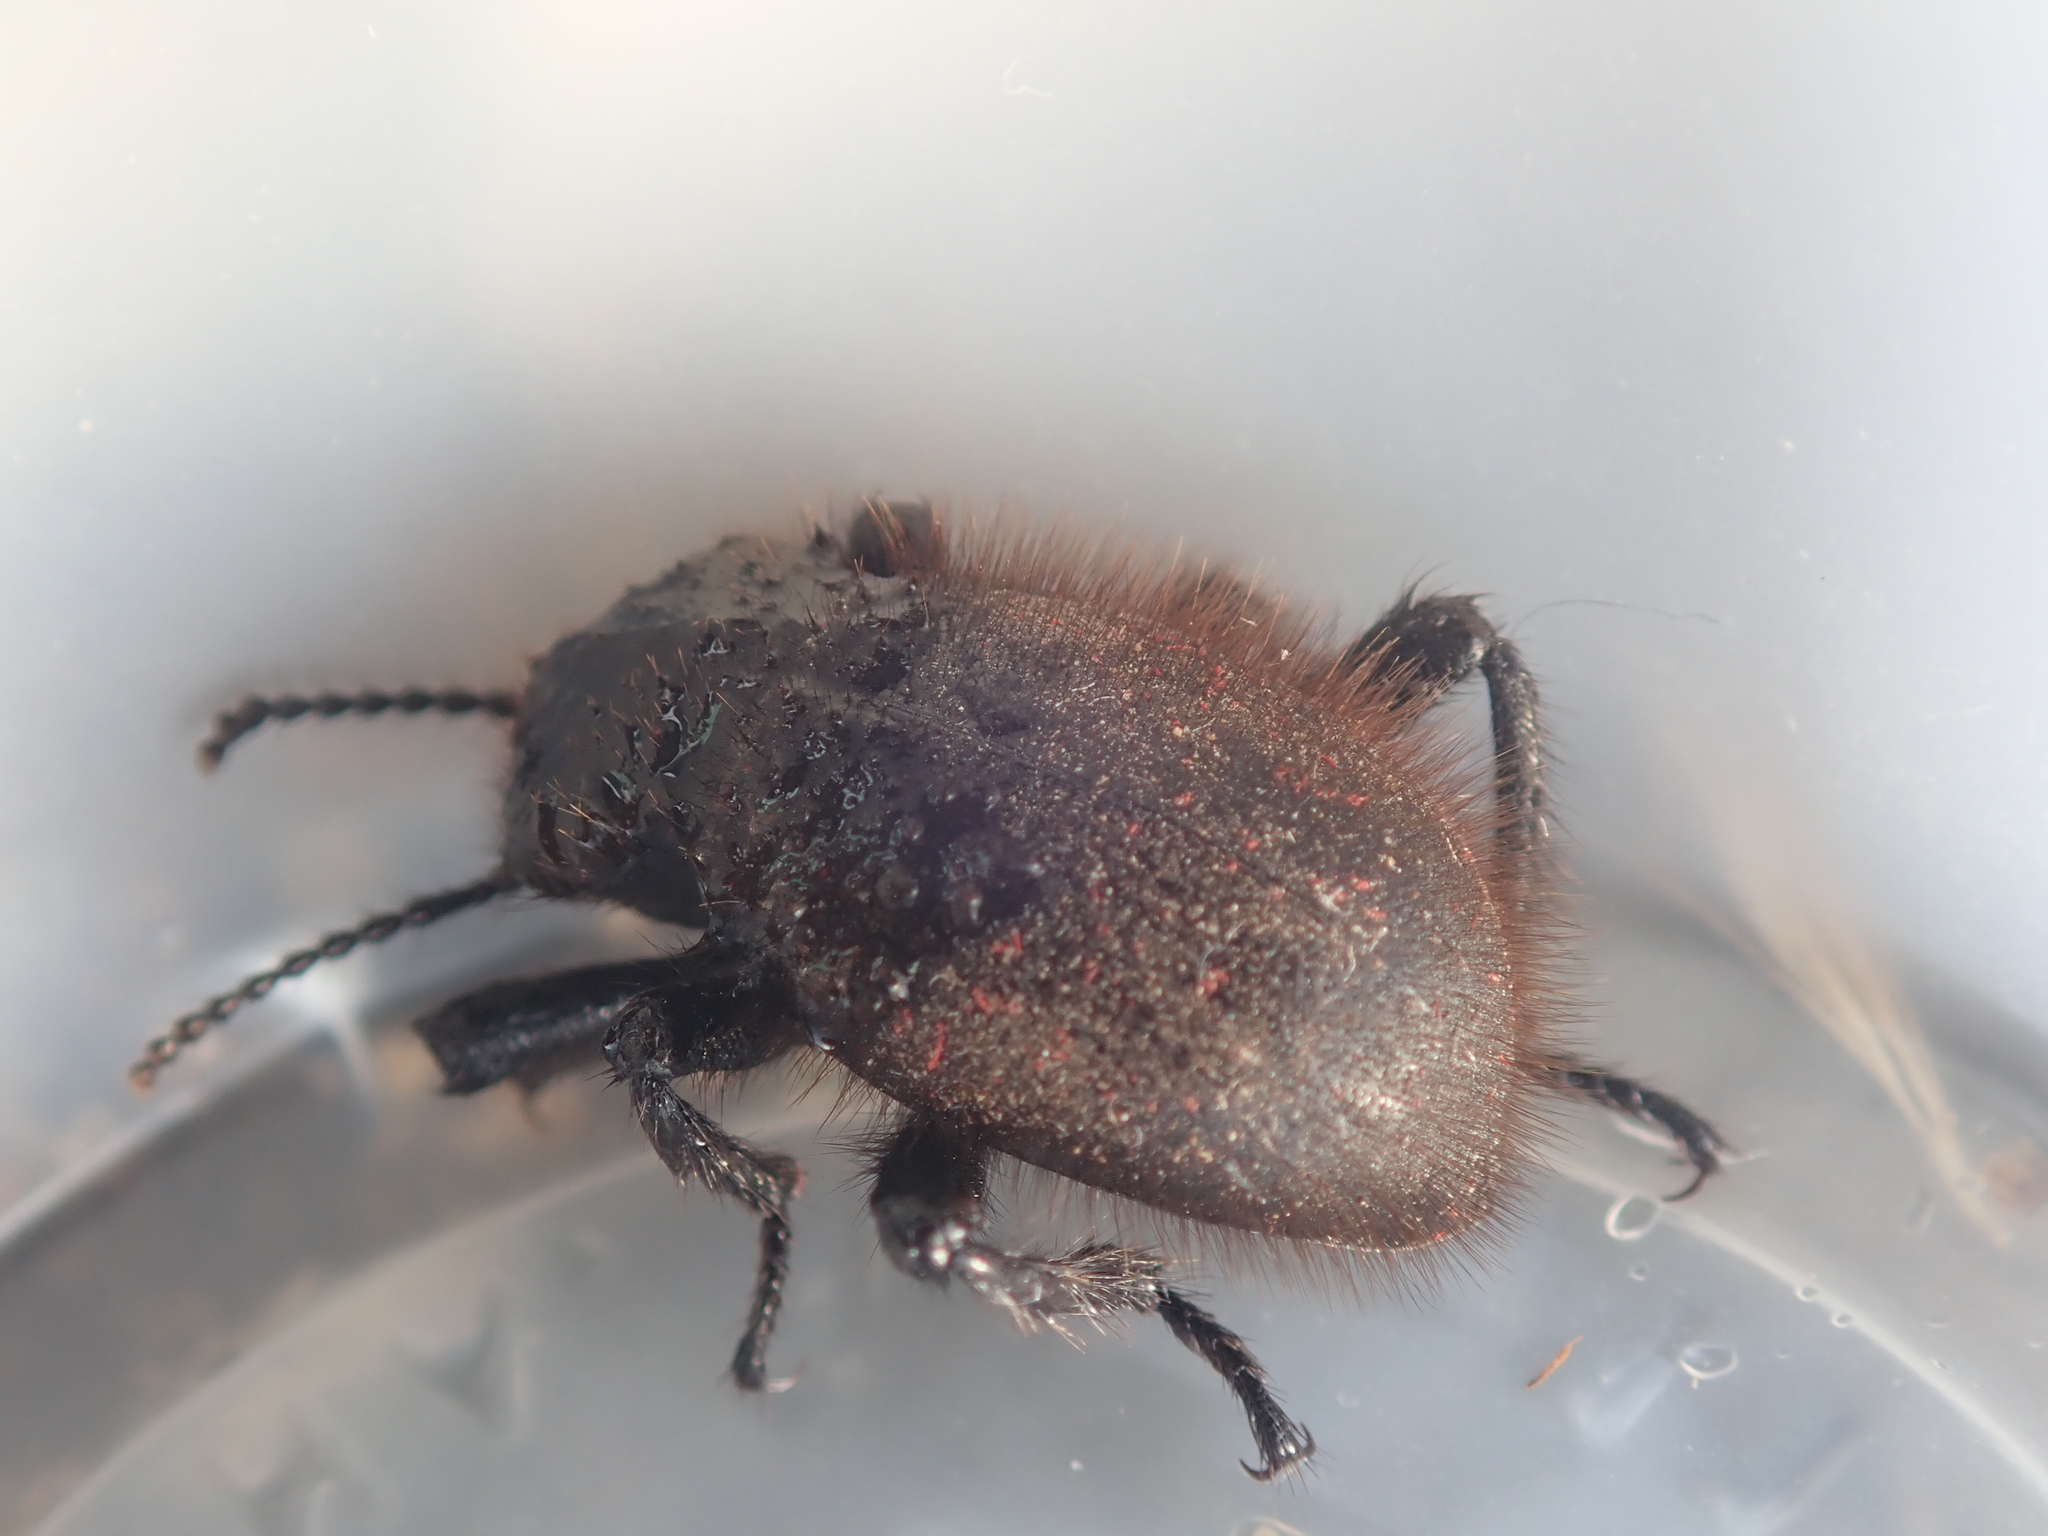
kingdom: Animalia
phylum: Arthropoda
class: Insecta
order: Coleoptera
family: Tenebrionidae
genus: Eleodes
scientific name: Eleodes osculans
